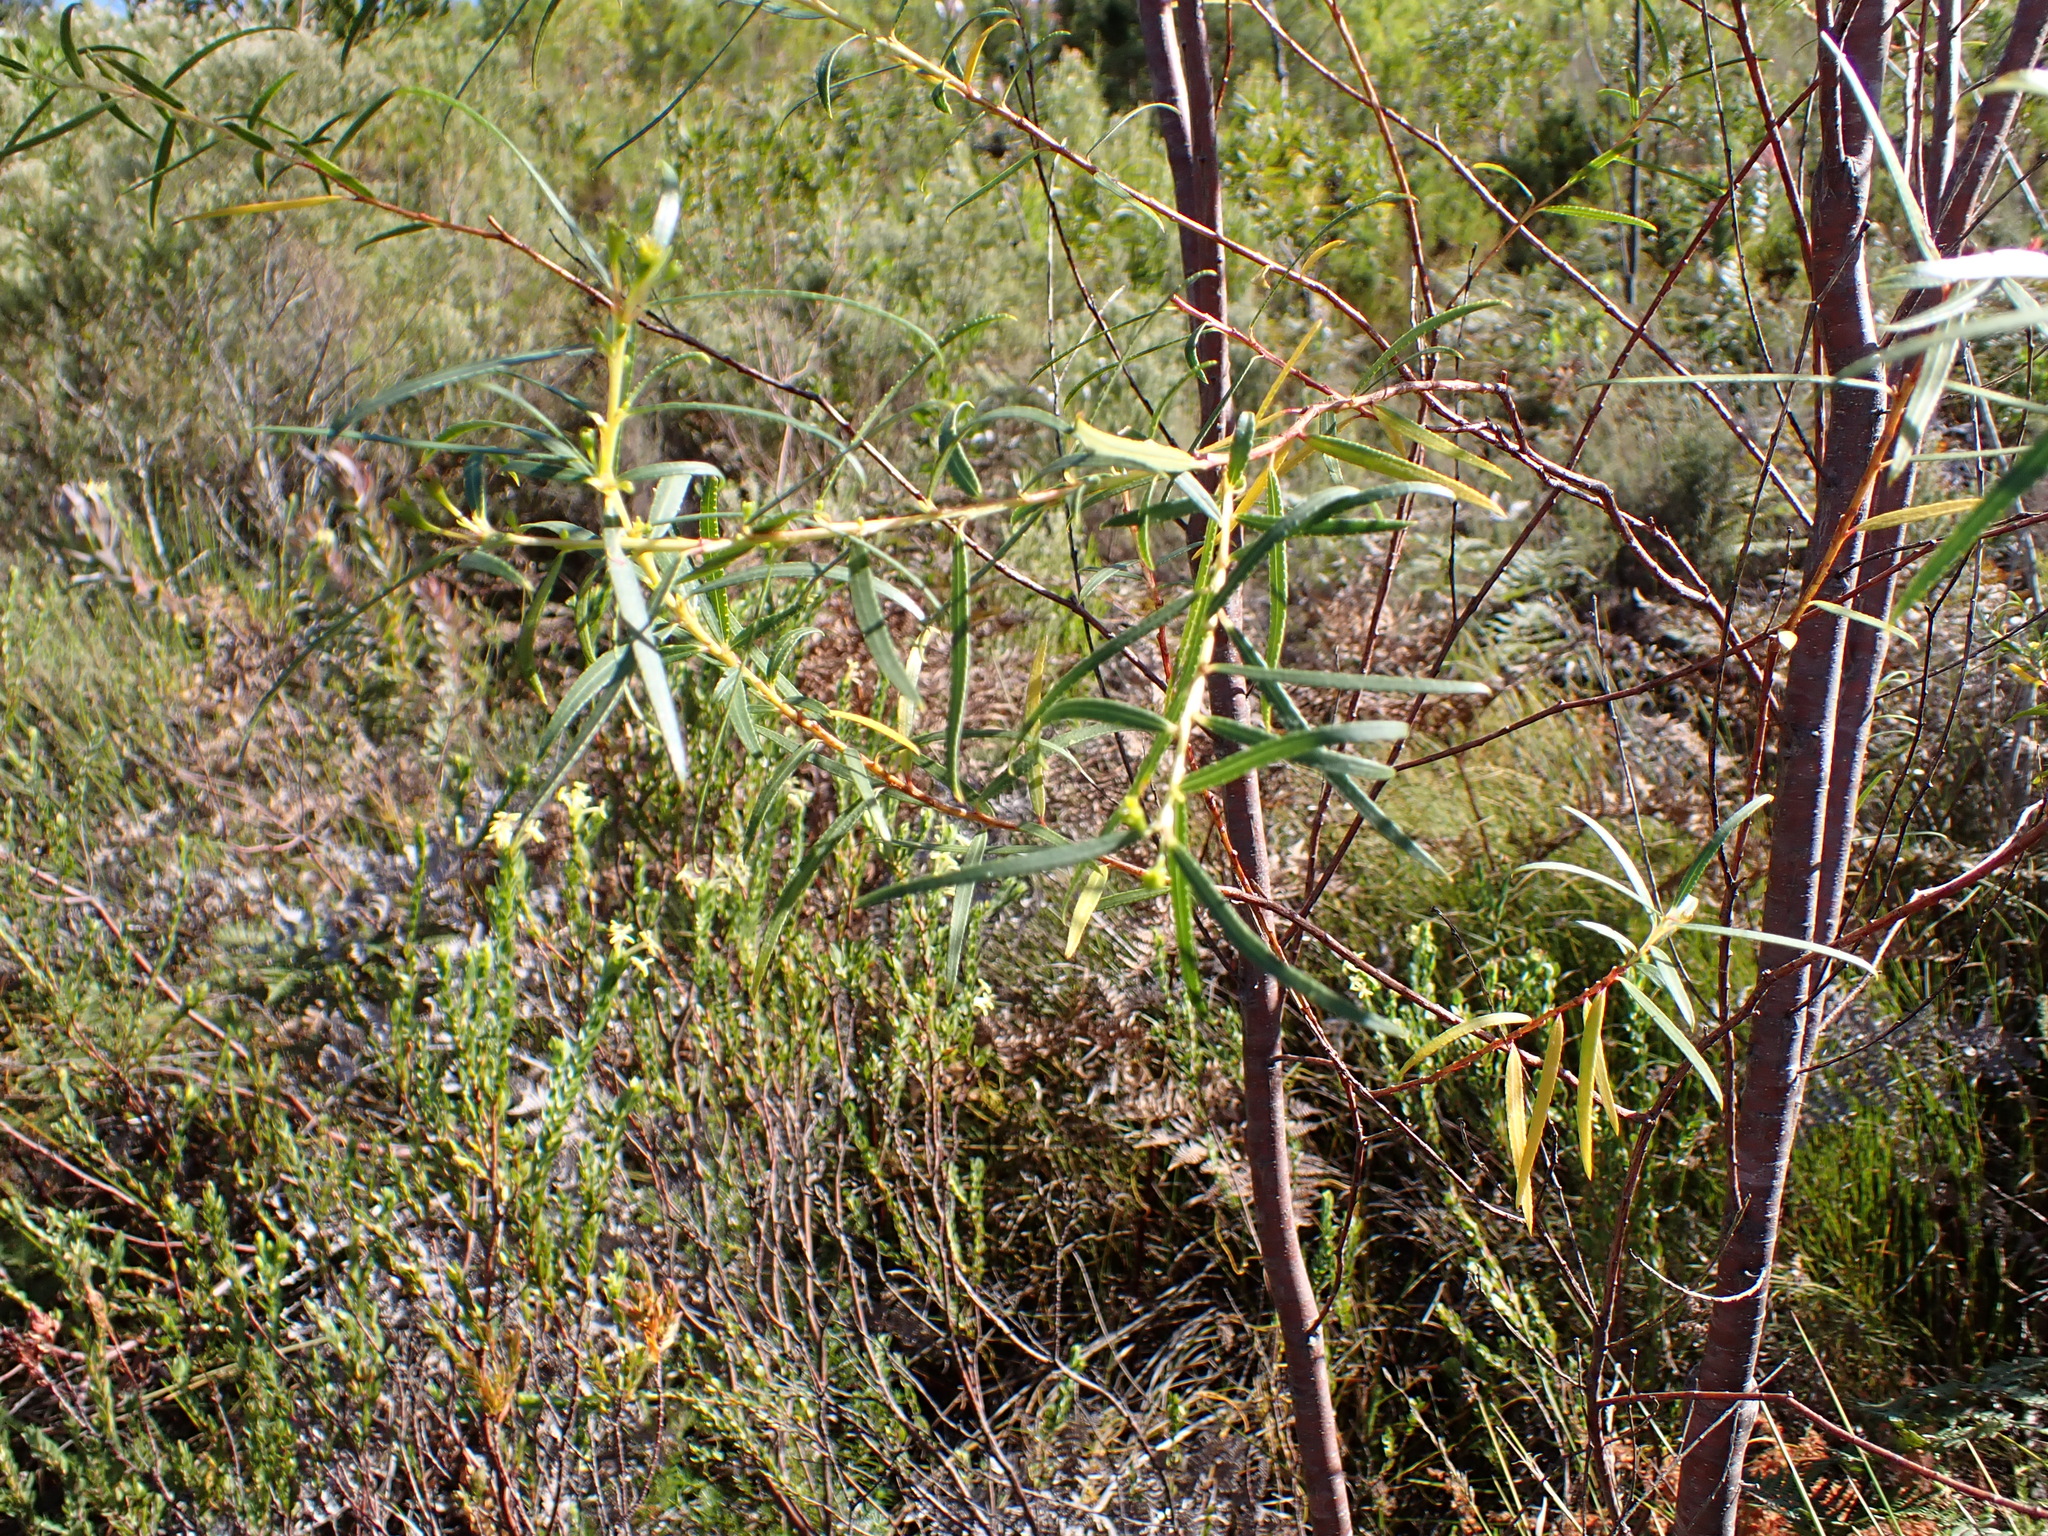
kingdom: Plantae
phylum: Tracheophyta
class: Magnoliopsida
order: Sapindales
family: Rutaceae
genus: Empleurum
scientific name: Empleurum unicapsulare
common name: False buchu
